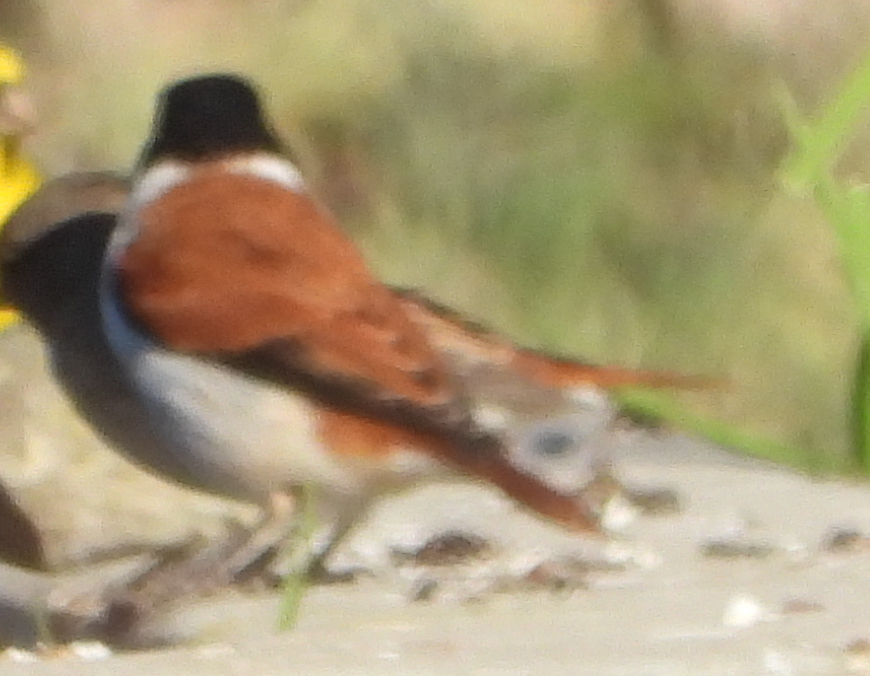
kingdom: Animalia
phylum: Chordata
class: Aves
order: Passeriformes
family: Fringillidae
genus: Serinus
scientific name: Serinus alario
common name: Black-headed canary
